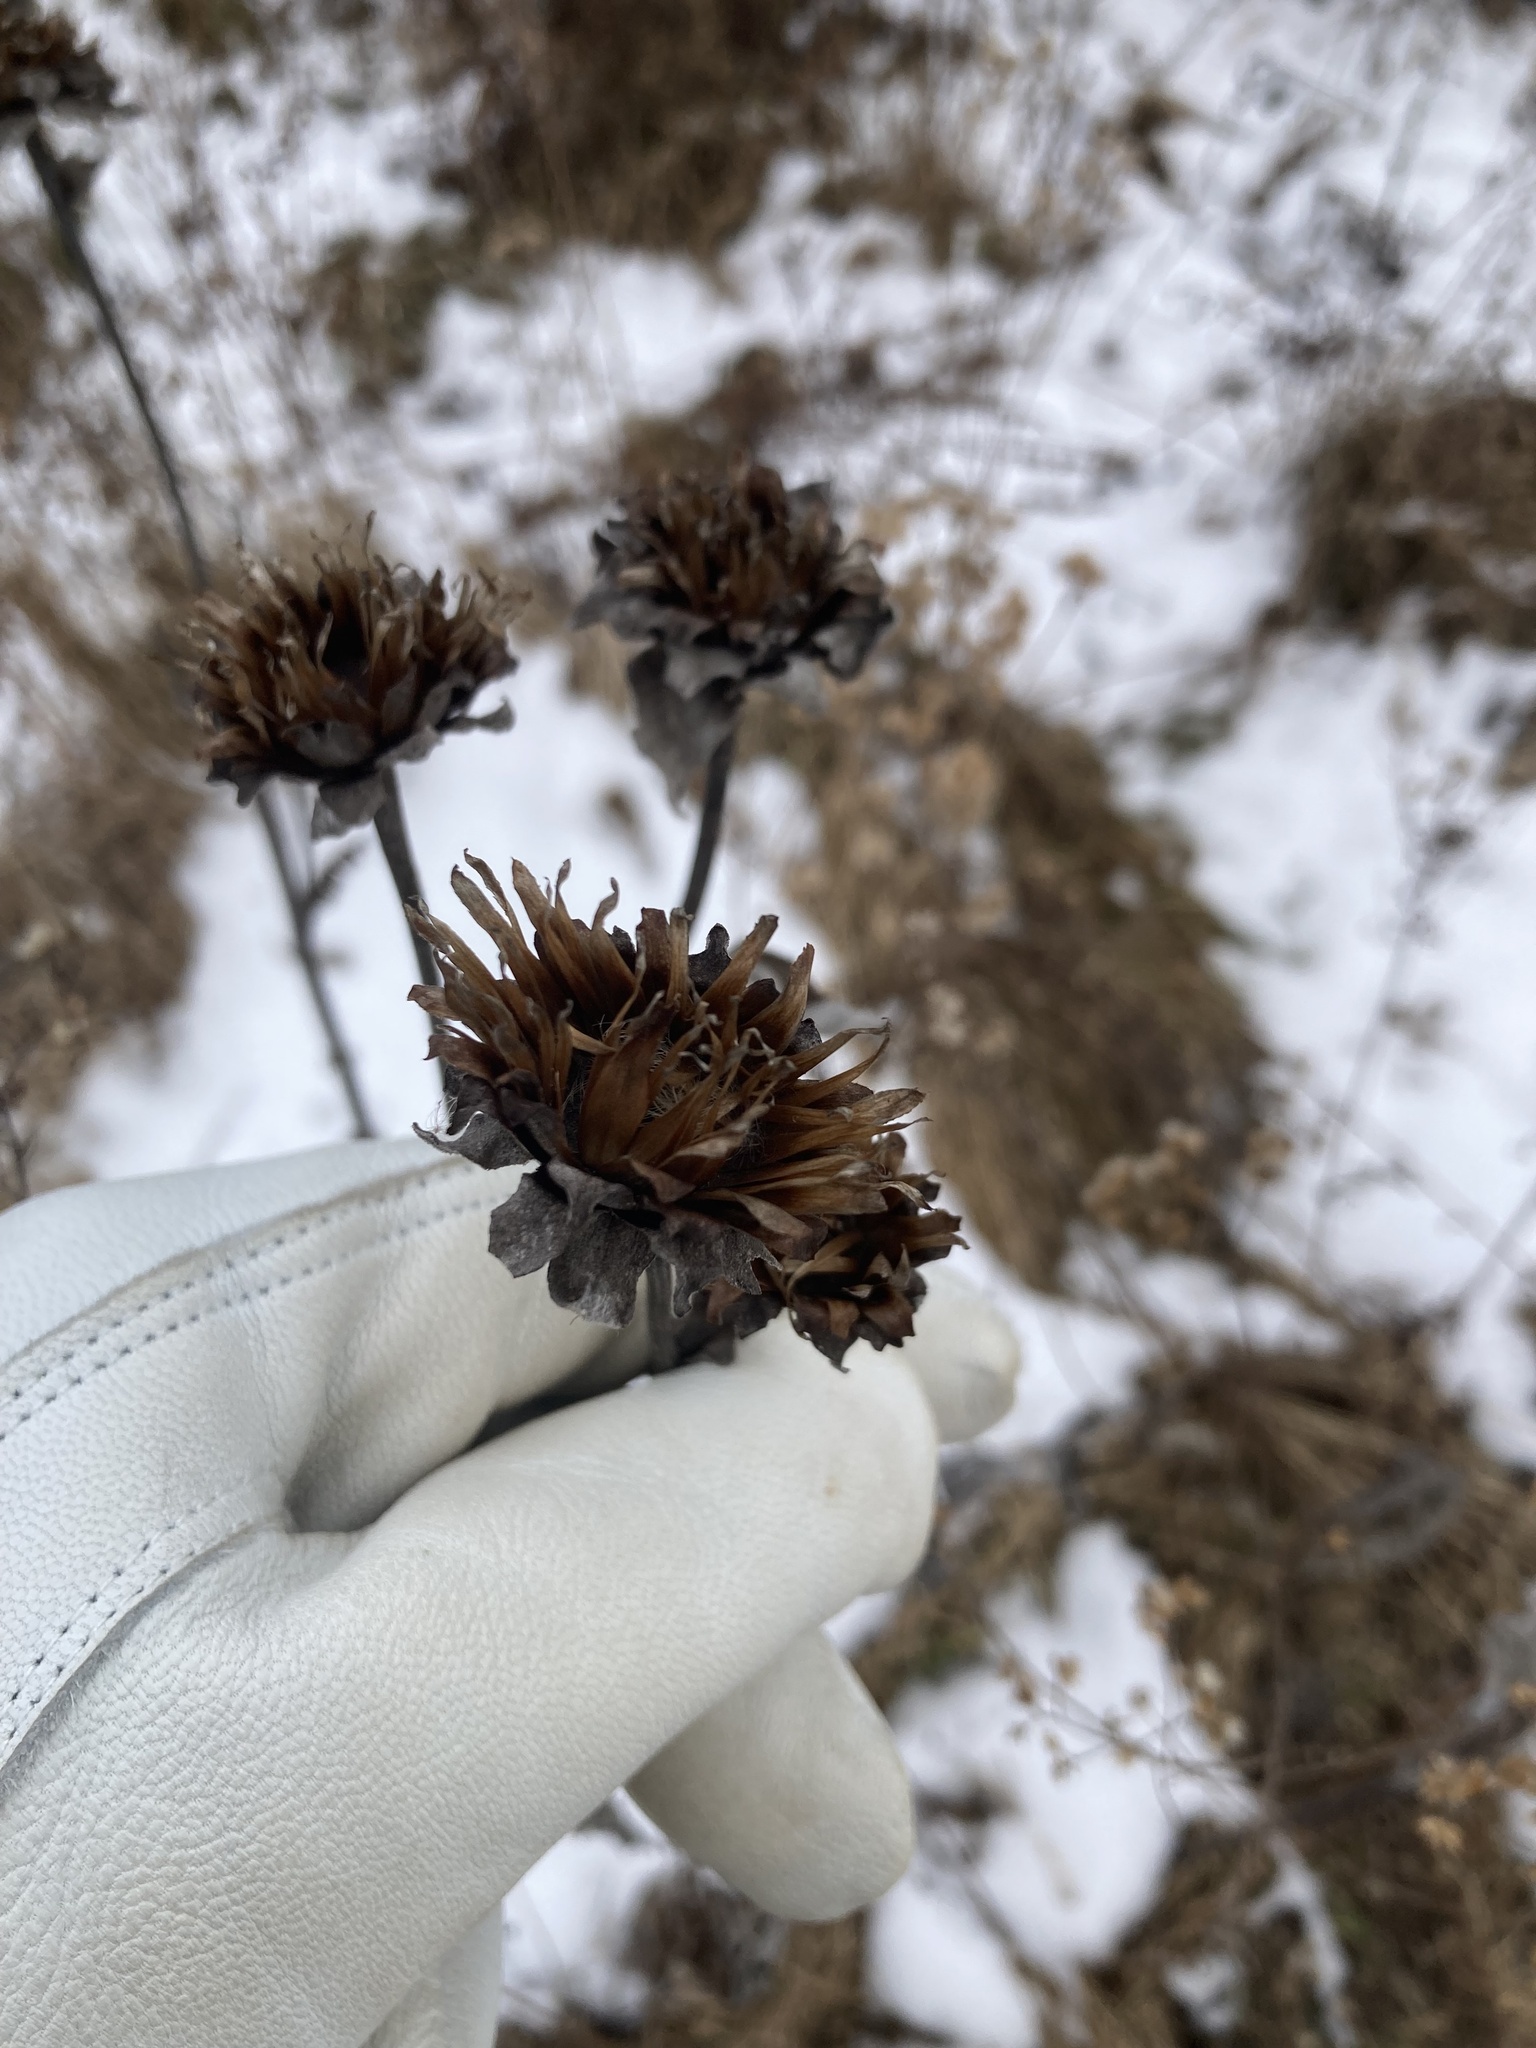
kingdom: Plantae
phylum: Tracheophyta
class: Magnoliopsida
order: Asterales
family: Asteraceae
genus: Inula
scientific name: Inula helenium
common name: Elecampane
